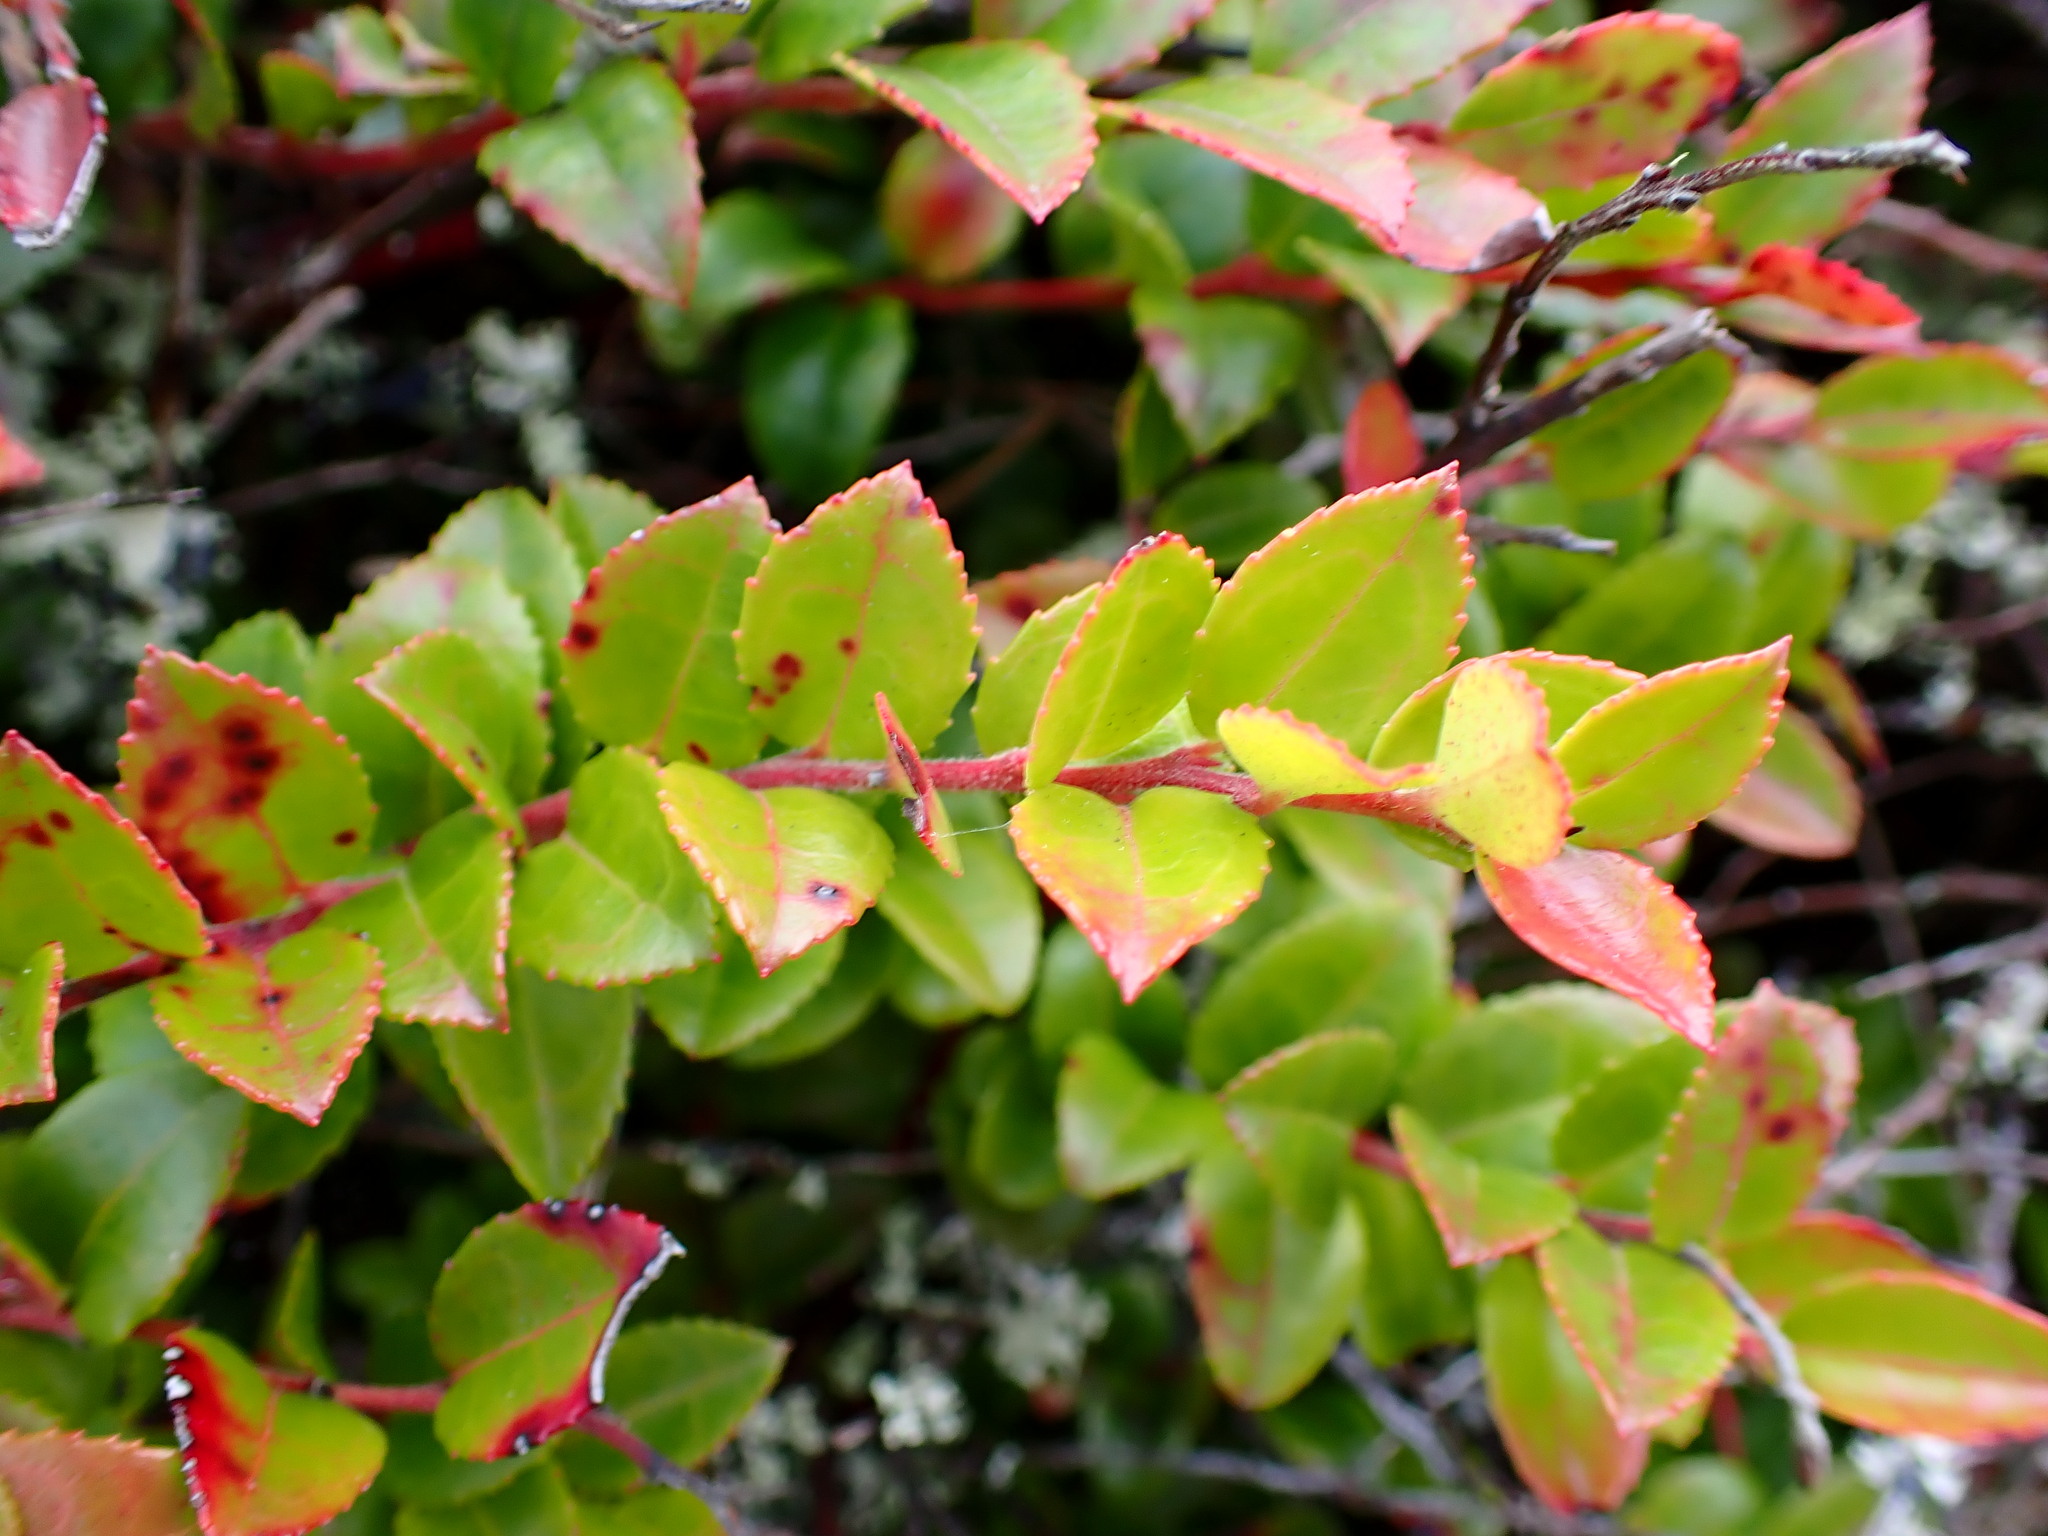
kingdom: Plantae
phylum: Tracheophyta
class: Magnoliopsida
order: Ericales
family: Ericaceae
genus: Vaccinium
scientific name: Vaccinium ovatum
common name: California-huckleberry
